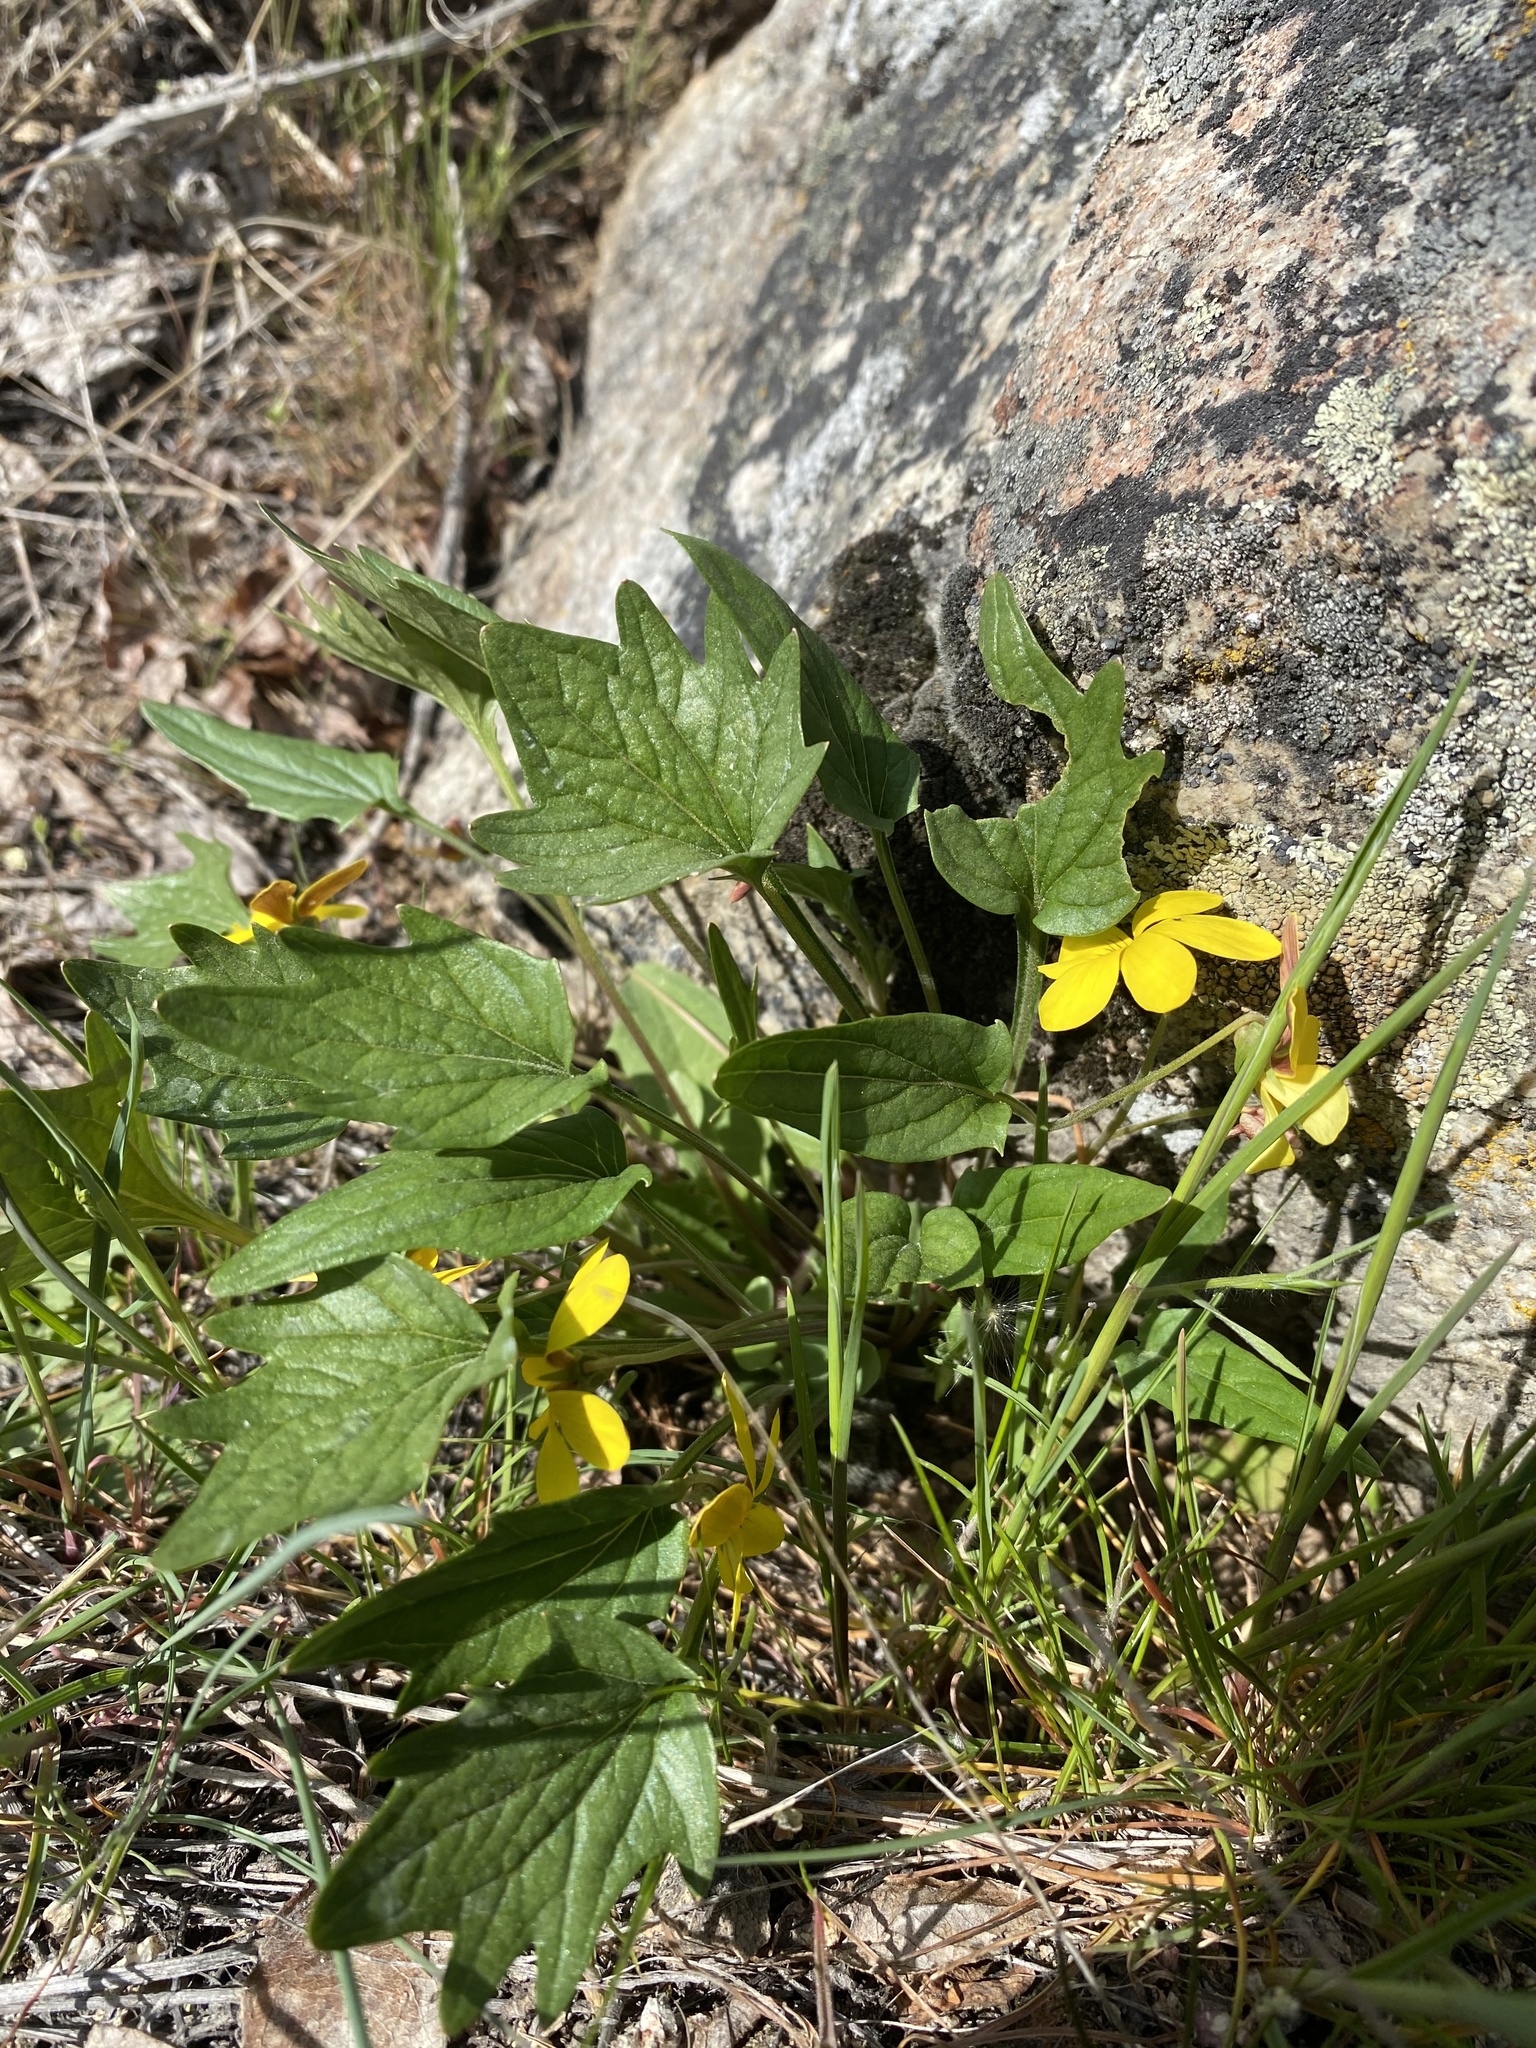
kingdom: Plantae
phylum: Tracheophyta
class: Magnoliopsida
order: Malpighiales
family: Violaceae
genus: Viola
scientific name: Viola purpurea
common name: Pine violet
